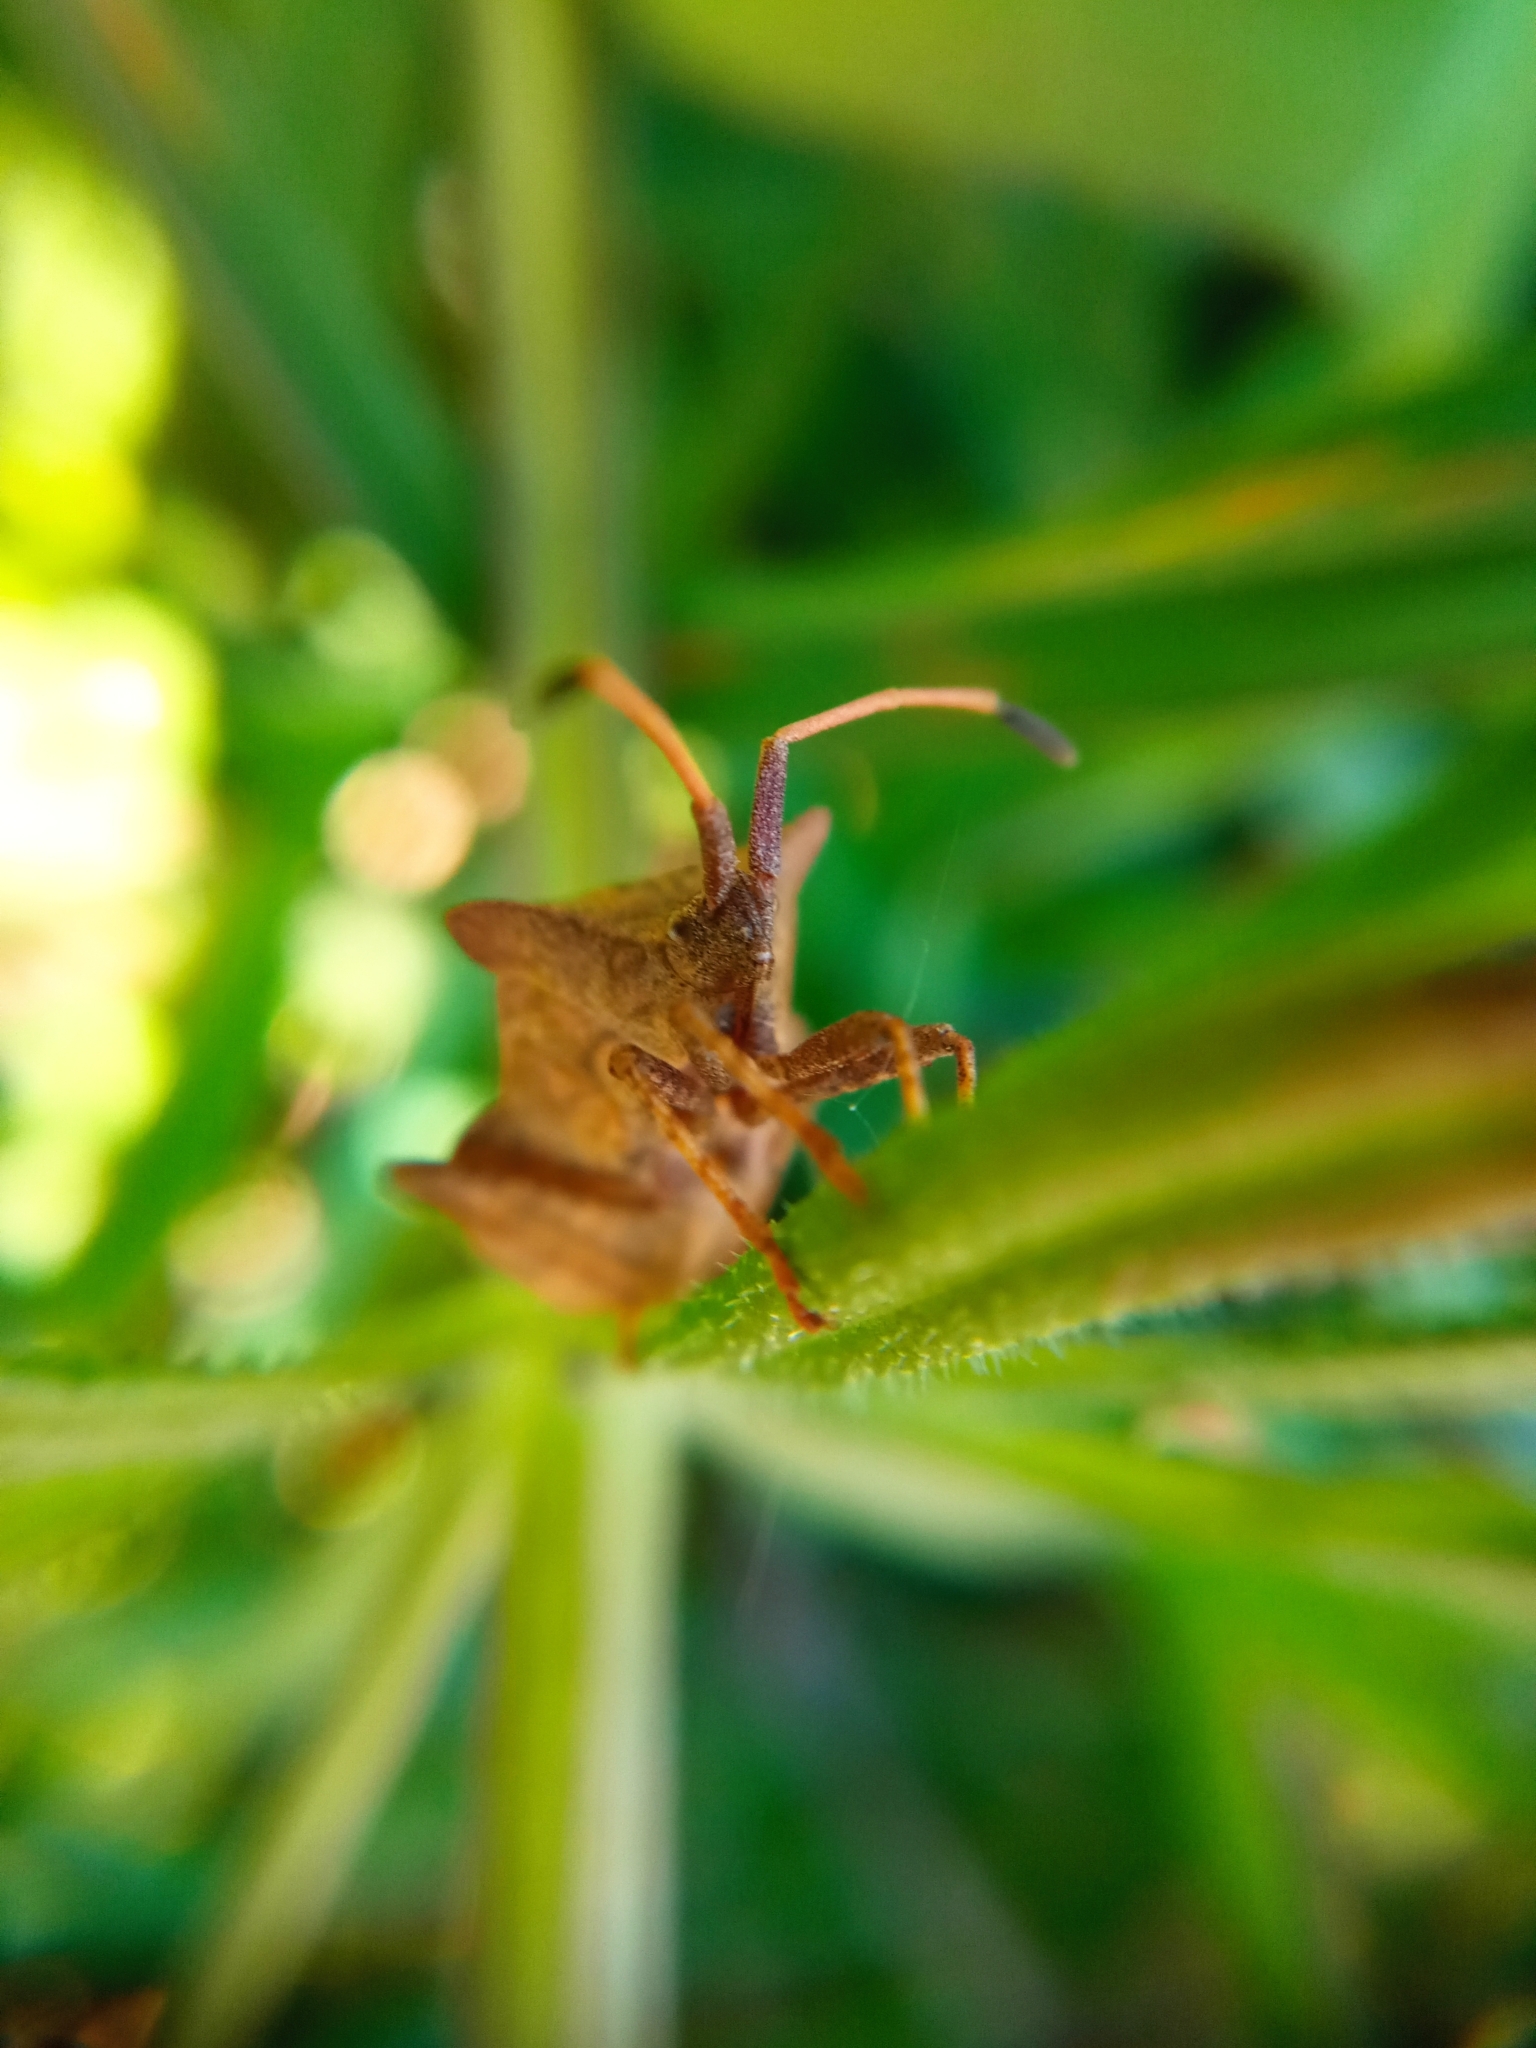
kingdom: Animalia
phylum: Arthropoda
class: Insecta
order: Hemiptera
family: Coreidae
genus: Coreus
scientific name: Coreus marginatus
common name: Dock bug
